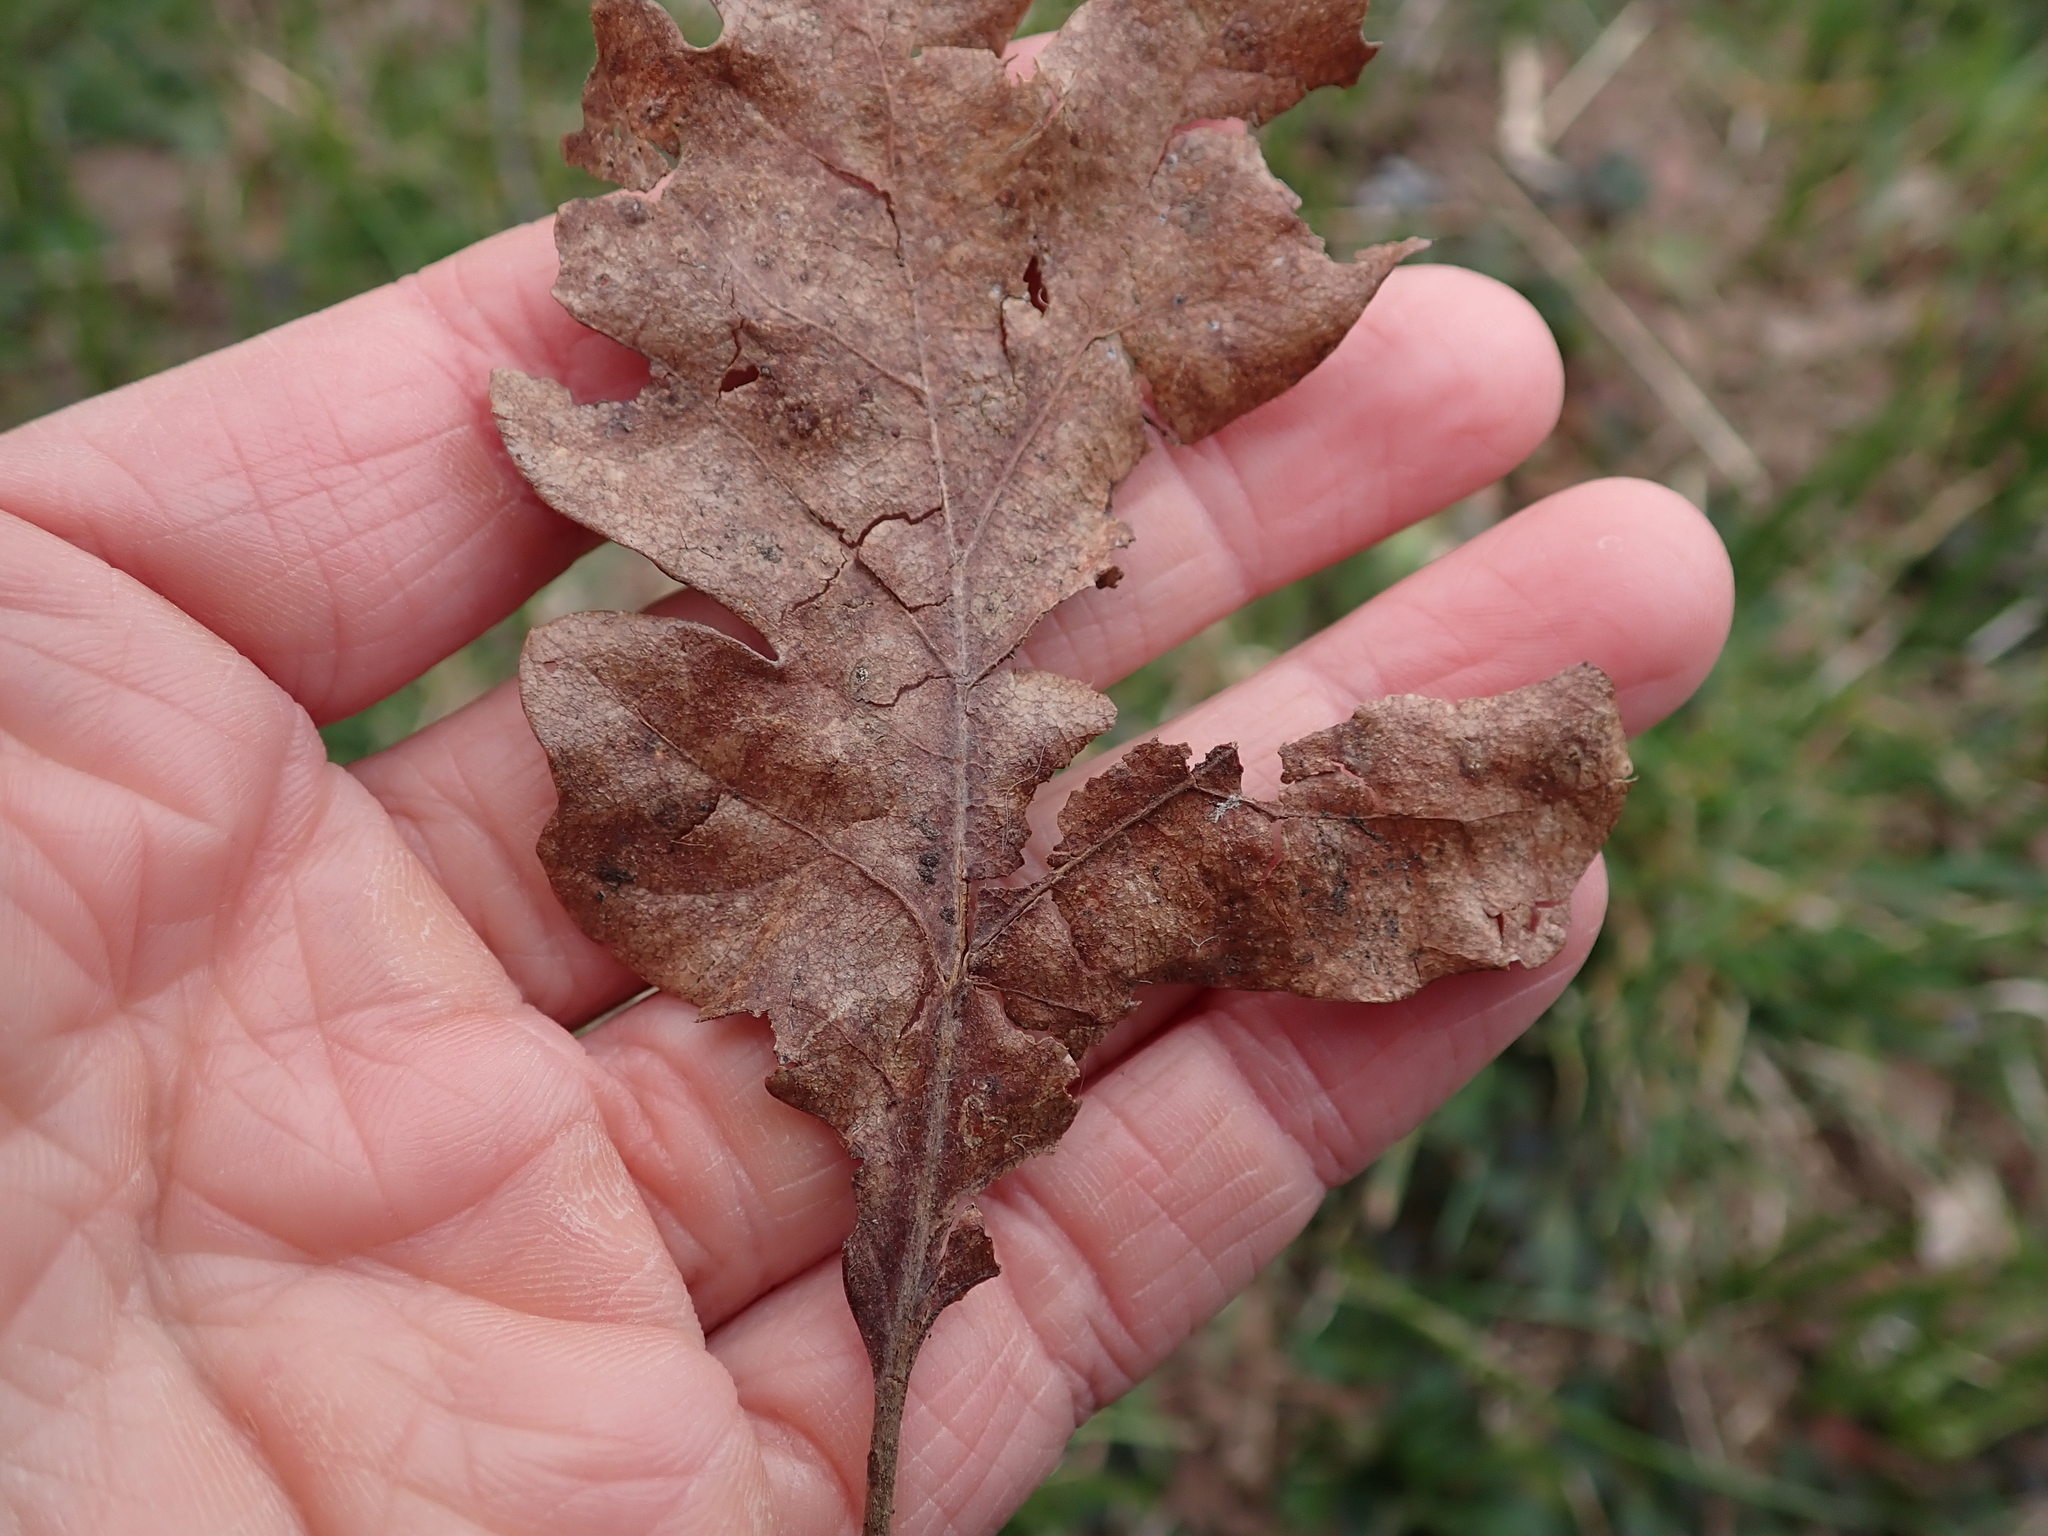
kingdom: Plantae
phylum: Tracheophyta
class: Magnoliopsida
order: Fagales
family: Fagaceae
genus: Quercus
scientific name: Quercus garryana
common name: Garry oak
